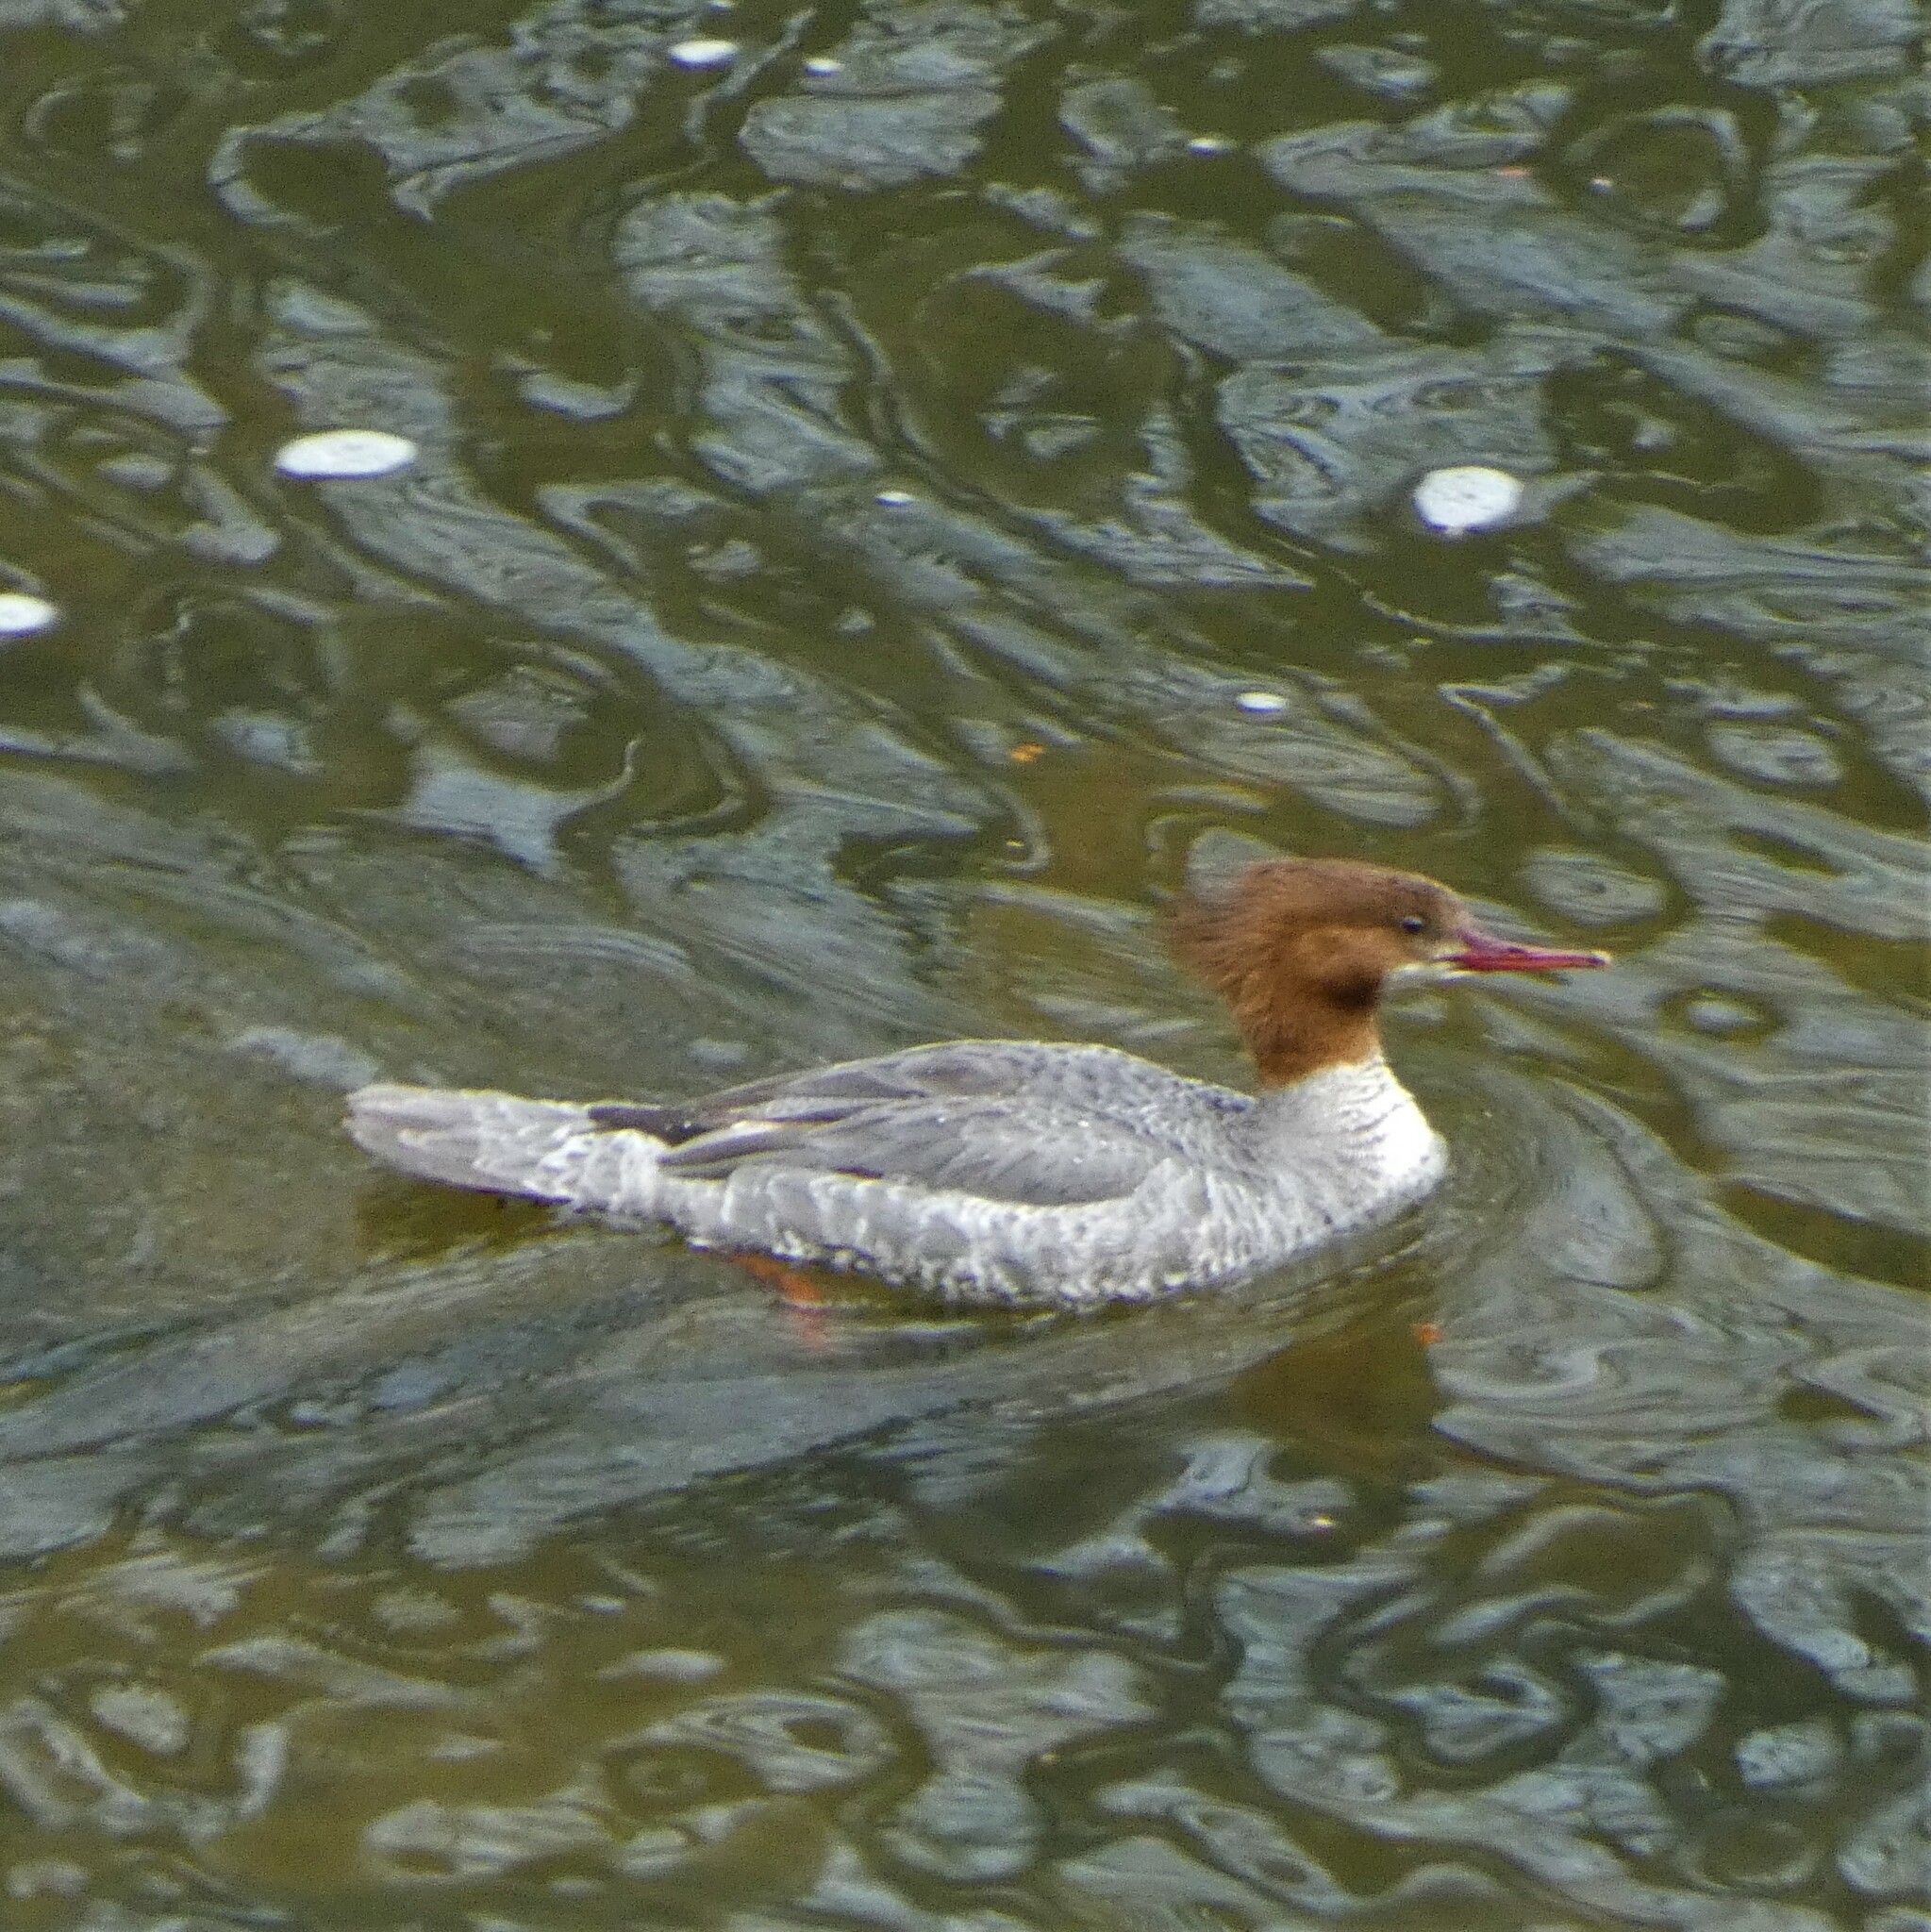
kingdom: Animalia
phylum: Chordata
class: Aves
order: Anseriformes
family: Anatidae
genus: Mergus
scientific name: Mergus merganser
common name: Common merganser
